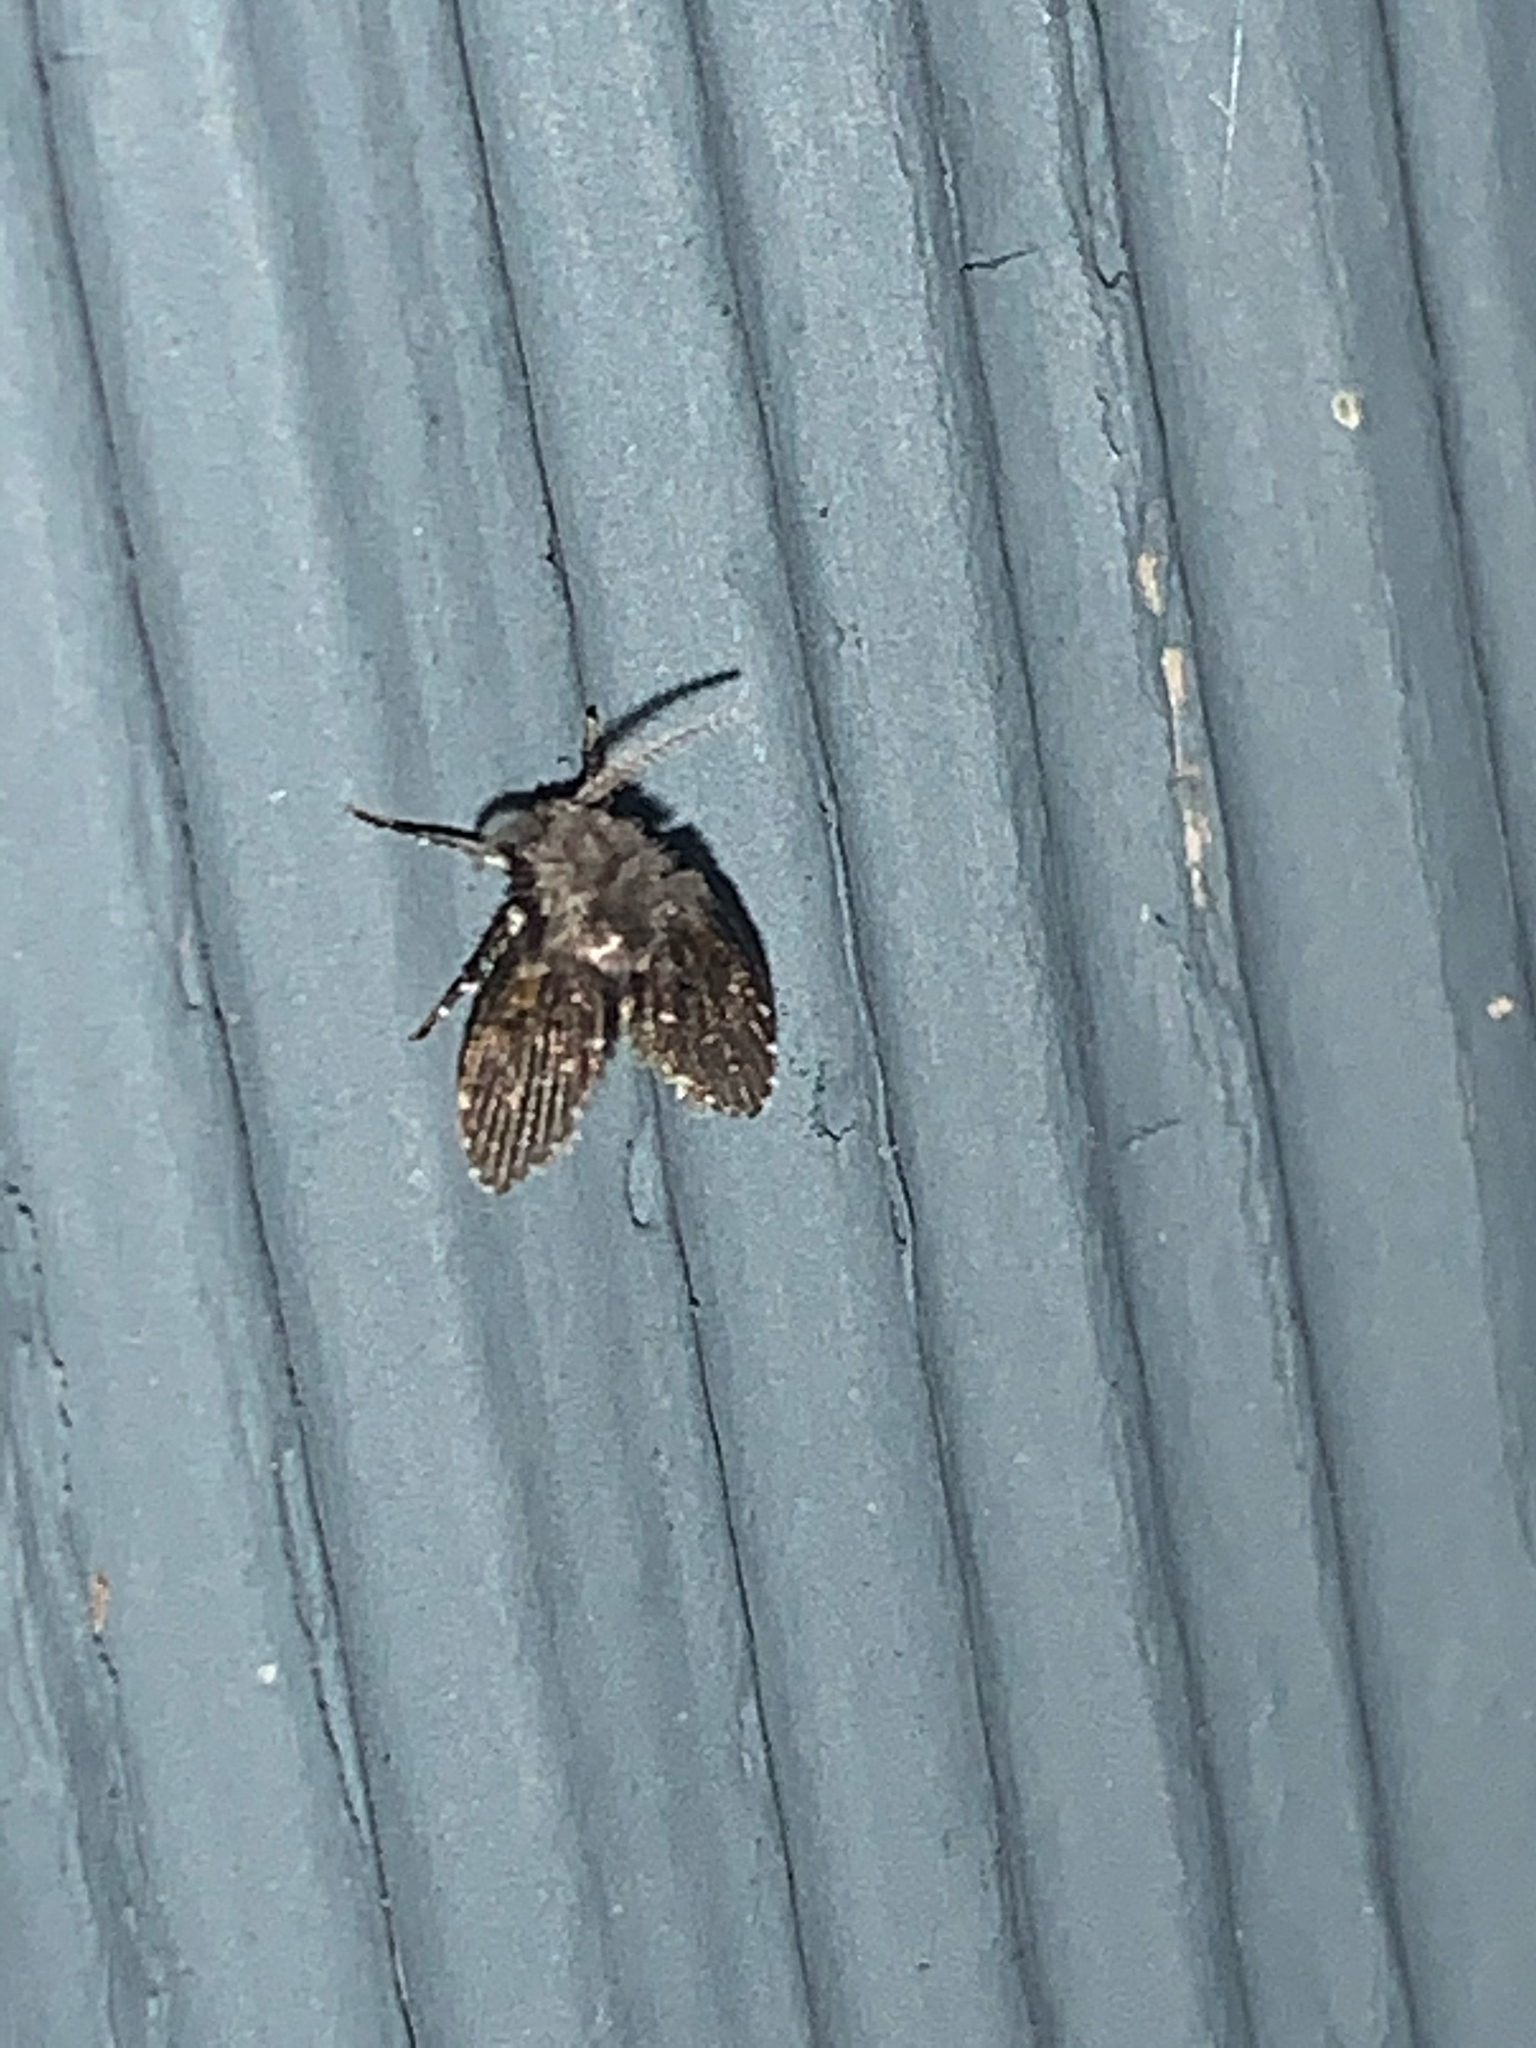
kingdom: Animalia
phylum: Arthropoda
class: Insecta
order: Diptera
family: Psychodidae
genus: Clogmia
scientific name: Clogmia albipunctatus
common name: White-spotted moth fly
